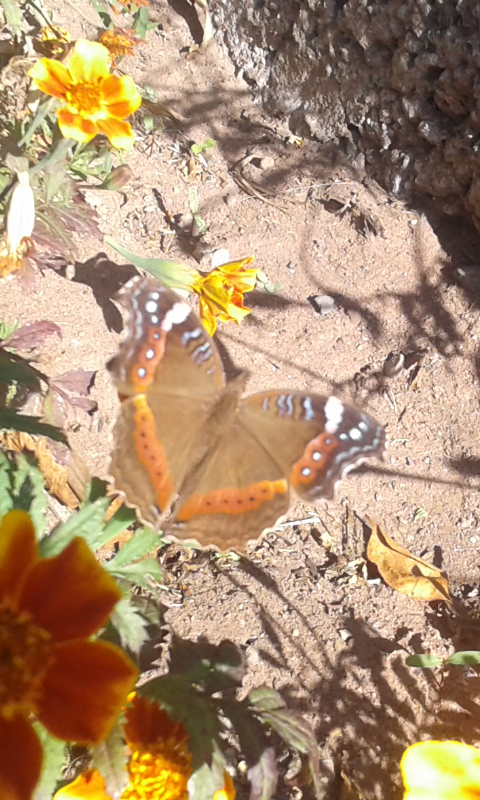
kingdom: Animalia
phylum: Arthropoda
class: Insecta
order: Lepidoptera
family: Nymphalidae
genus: Junonia
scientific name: Junonia archesia
